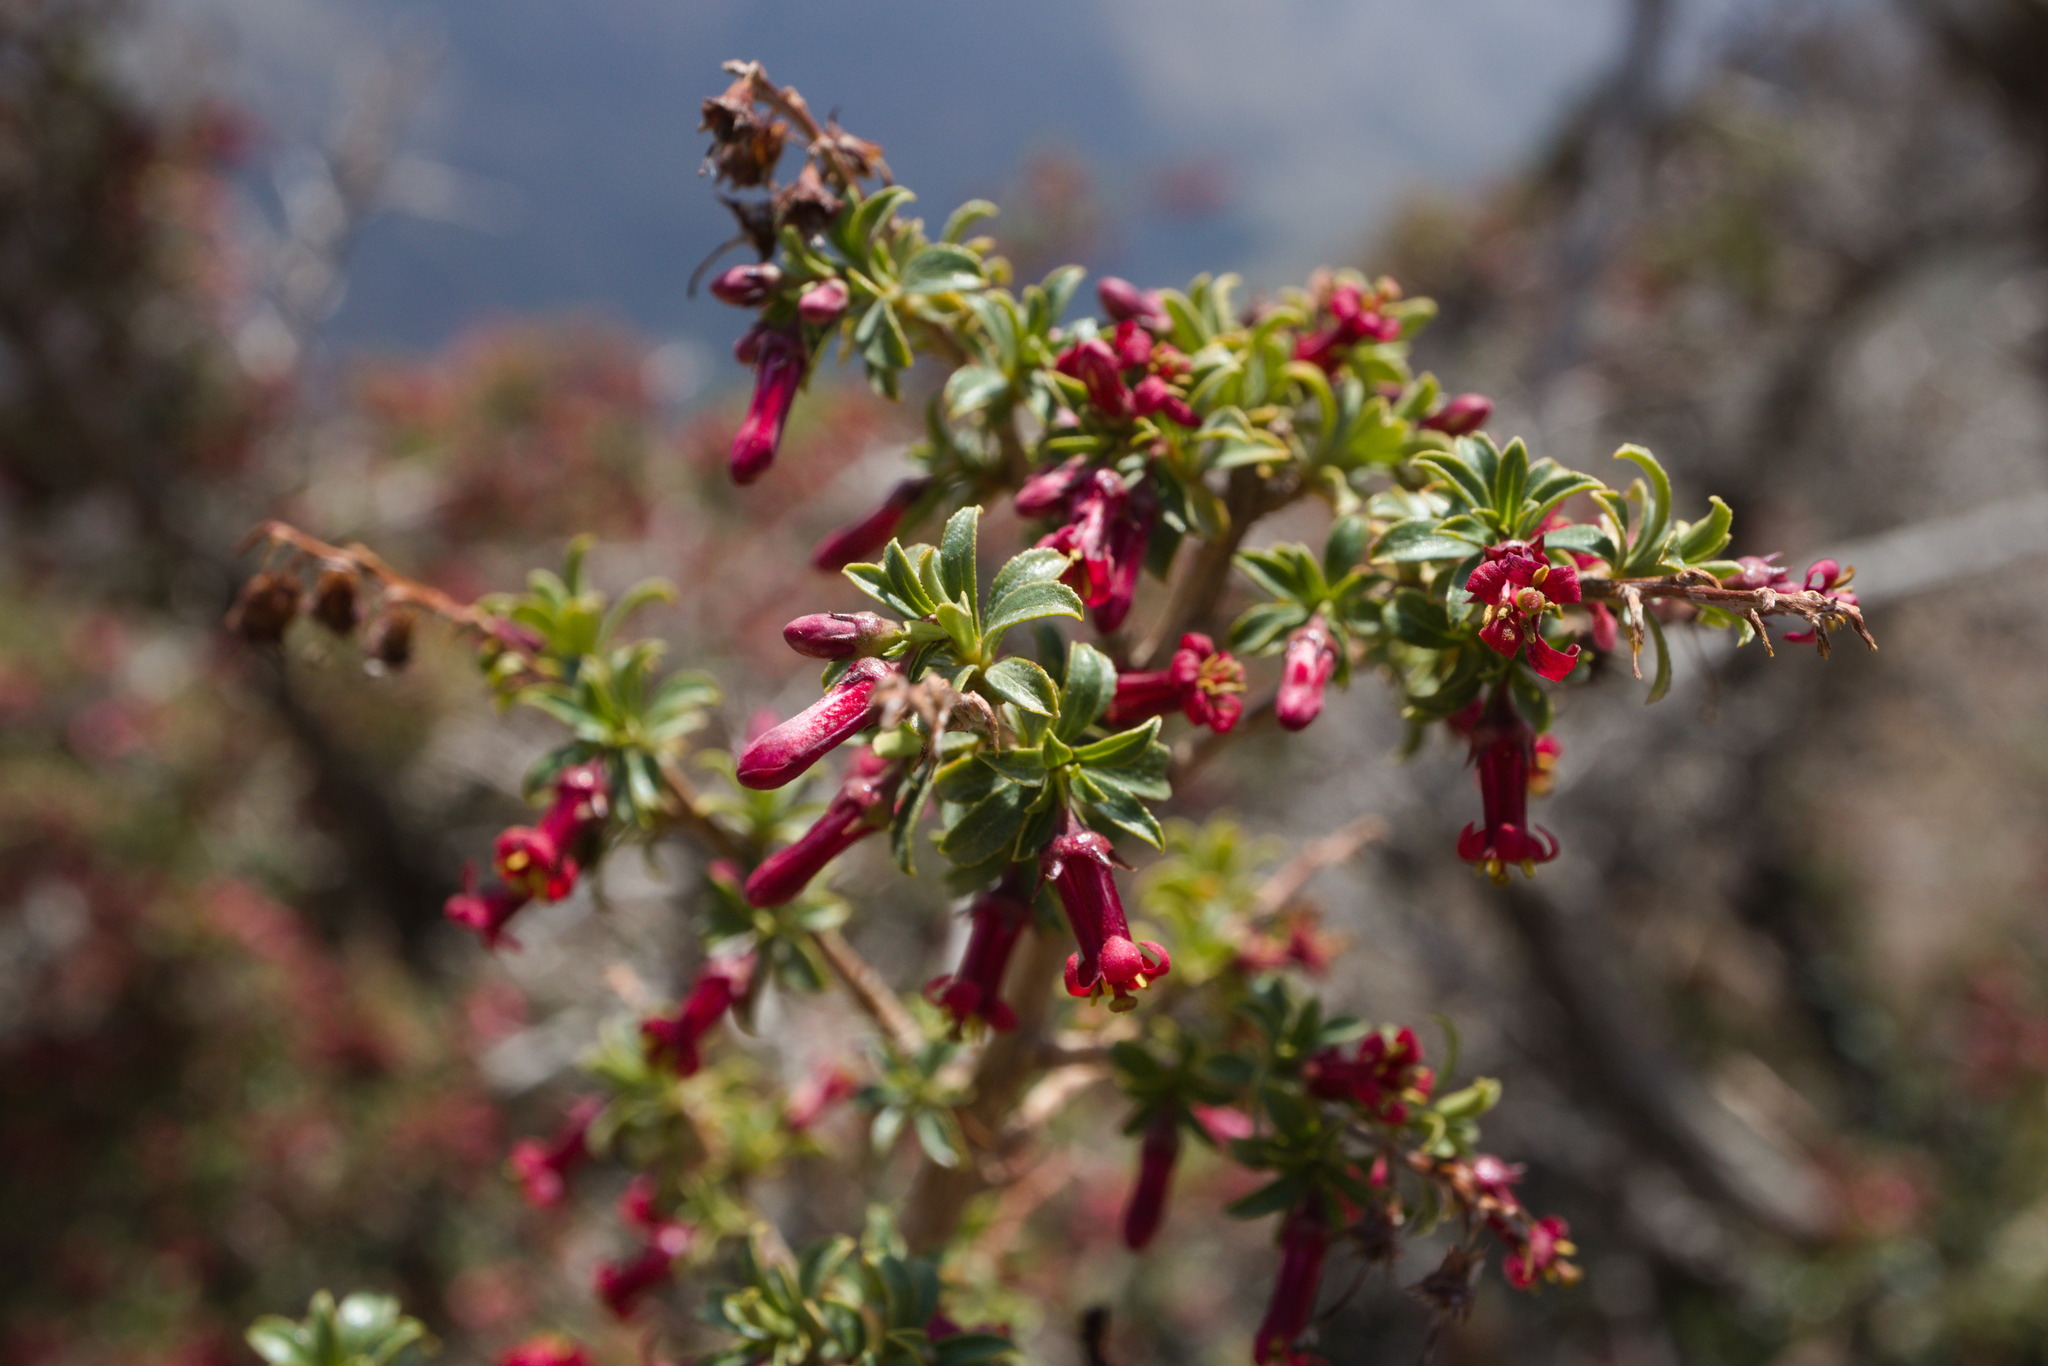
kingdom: Plantae
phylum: Tracheophyta
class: Magnoliopsida
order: Escalloniales
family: Escalloniaceae
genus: Escallonia
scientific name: Escallonia alpina
